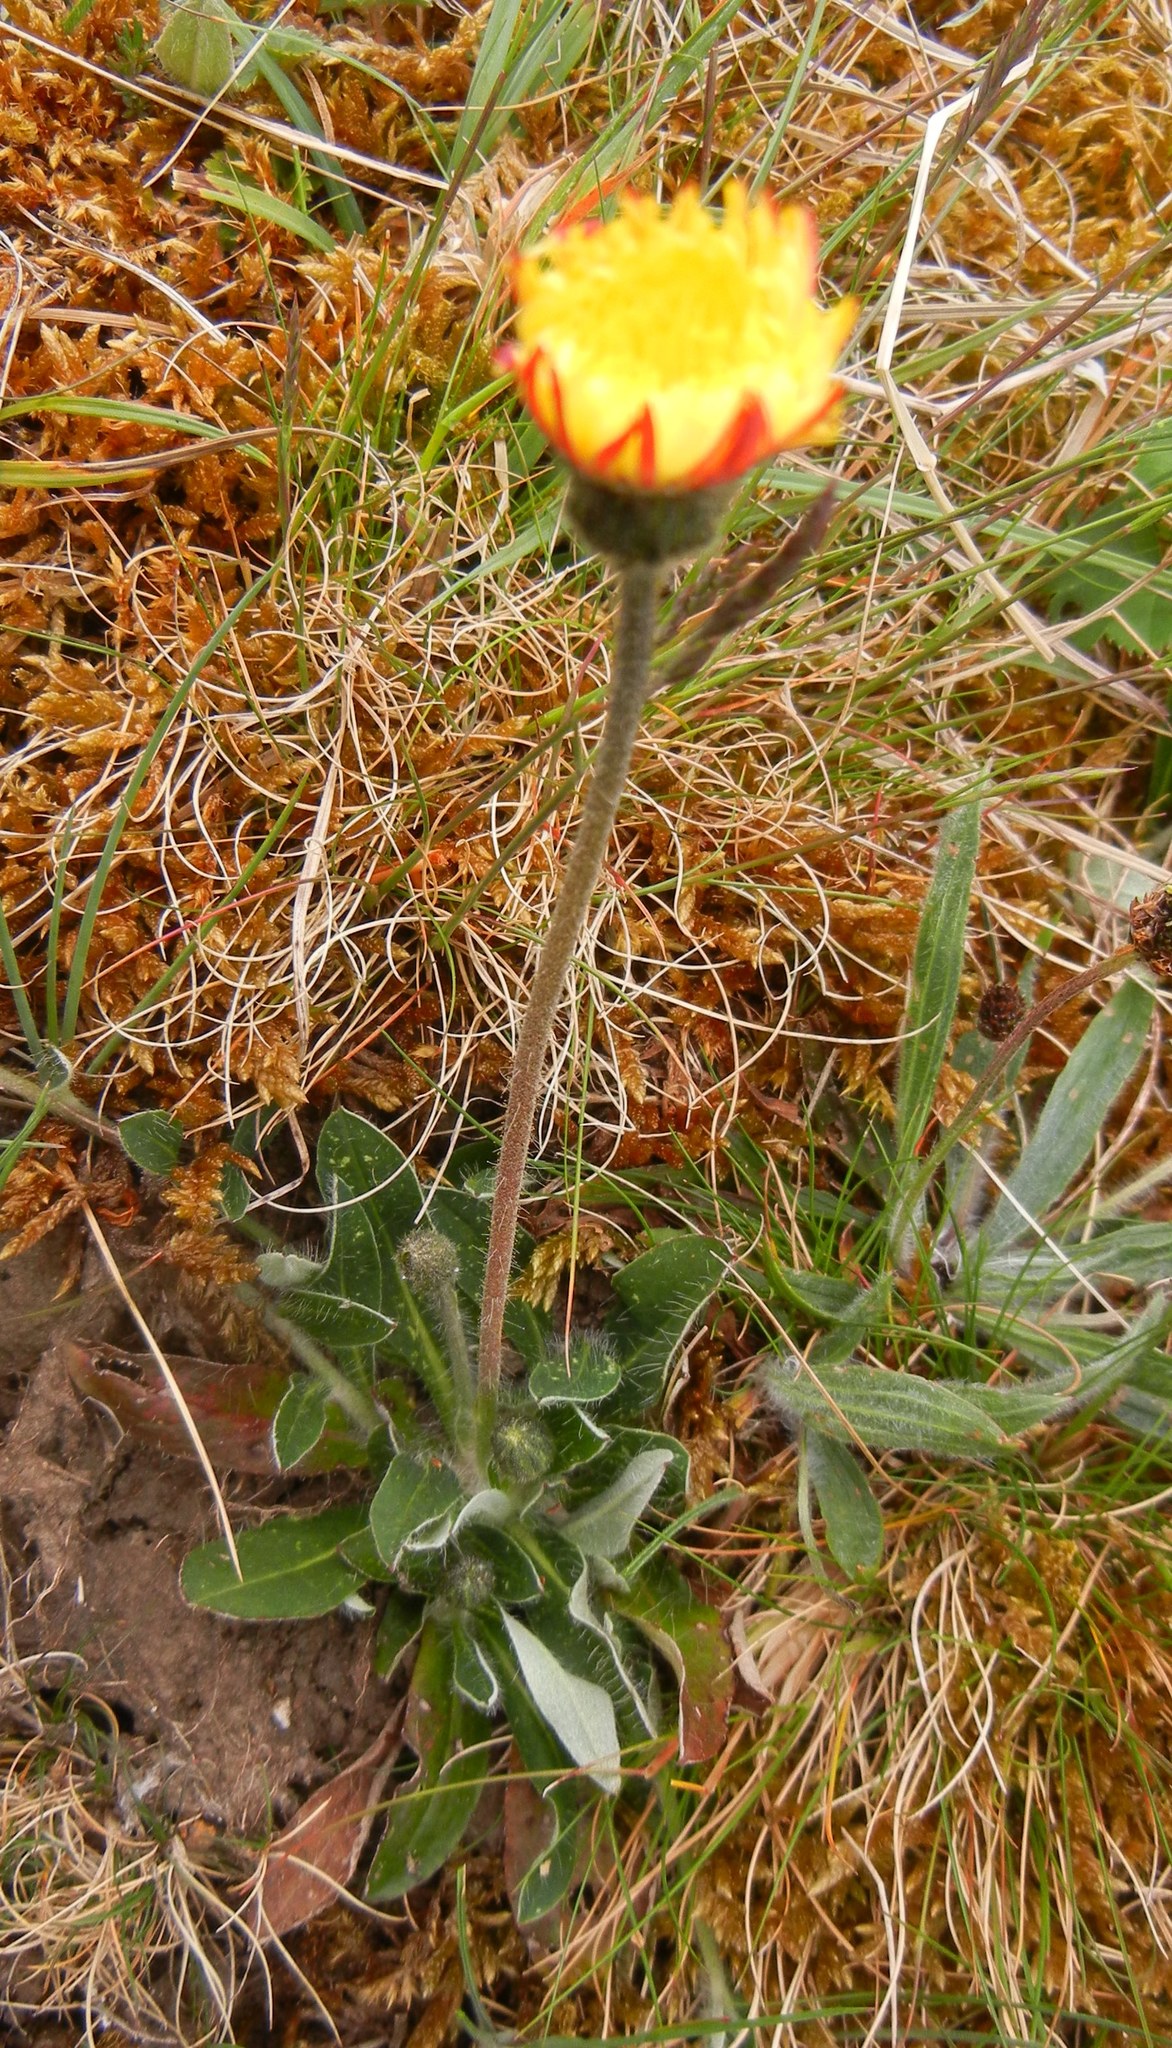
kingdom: Plantae
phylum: Tracheophyta
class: Magnoliopsida
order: Asterales
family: Asteraceae
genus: Pilosella
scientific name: Pilosella officinarum
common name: Mouse-ear hawkweed
